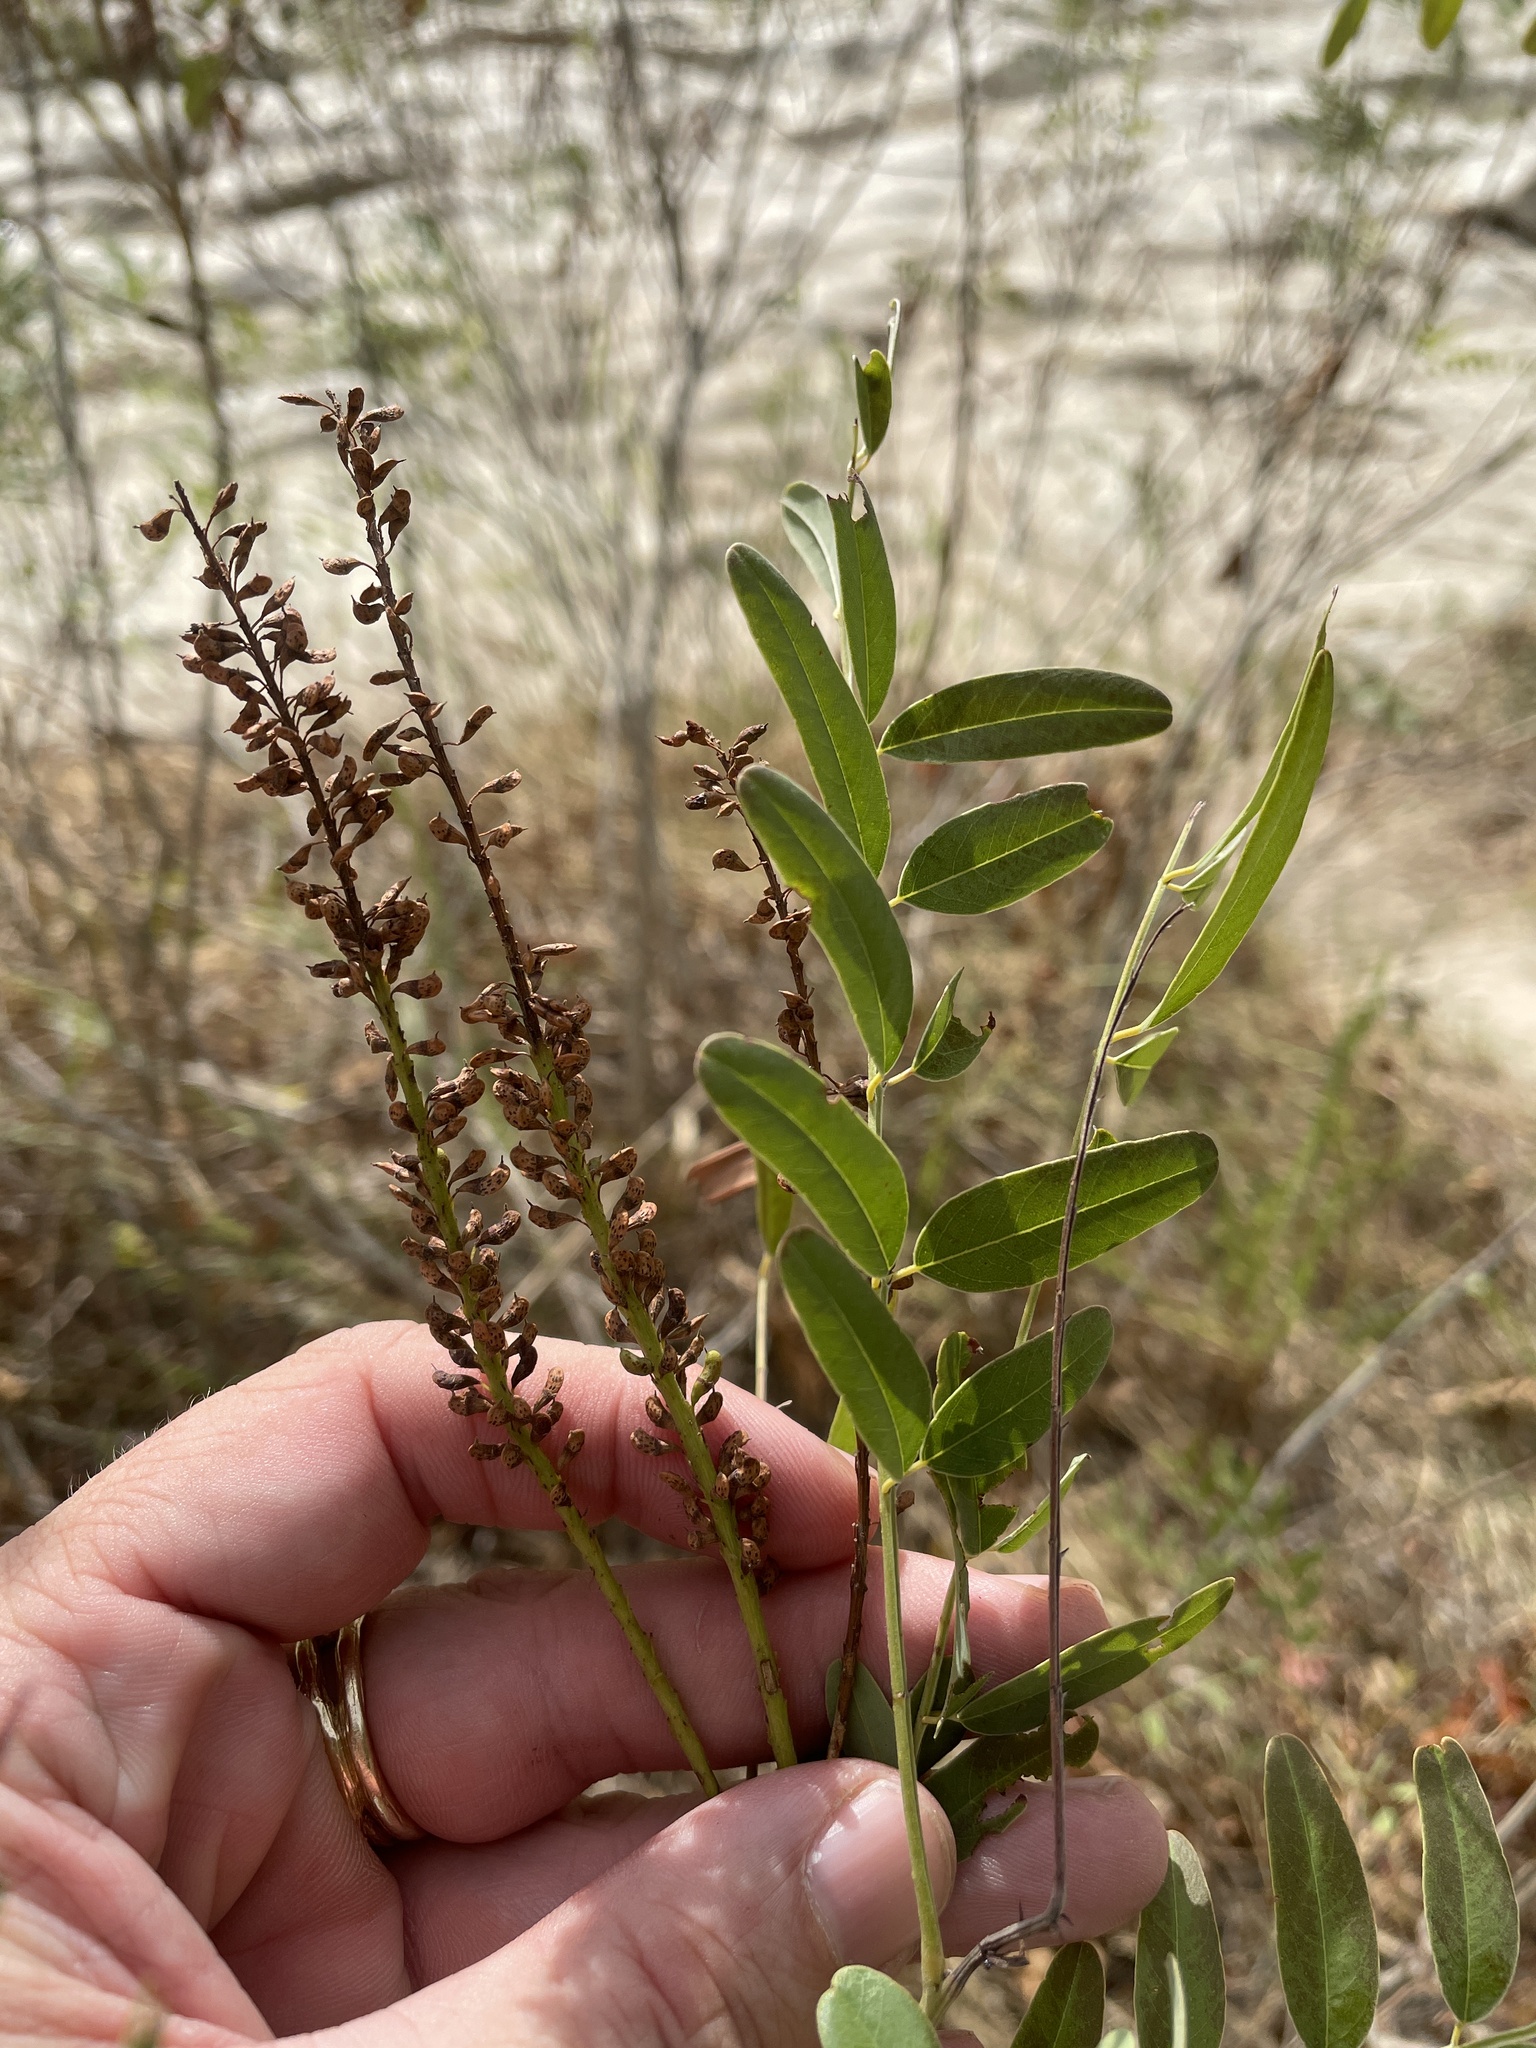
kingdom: Plantae
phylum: Tracheophyta
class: Magnoliopsida
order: Fabales
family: Fabaceae
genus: Amorpha
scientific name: Amorpha fruticosa
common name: False indigo
